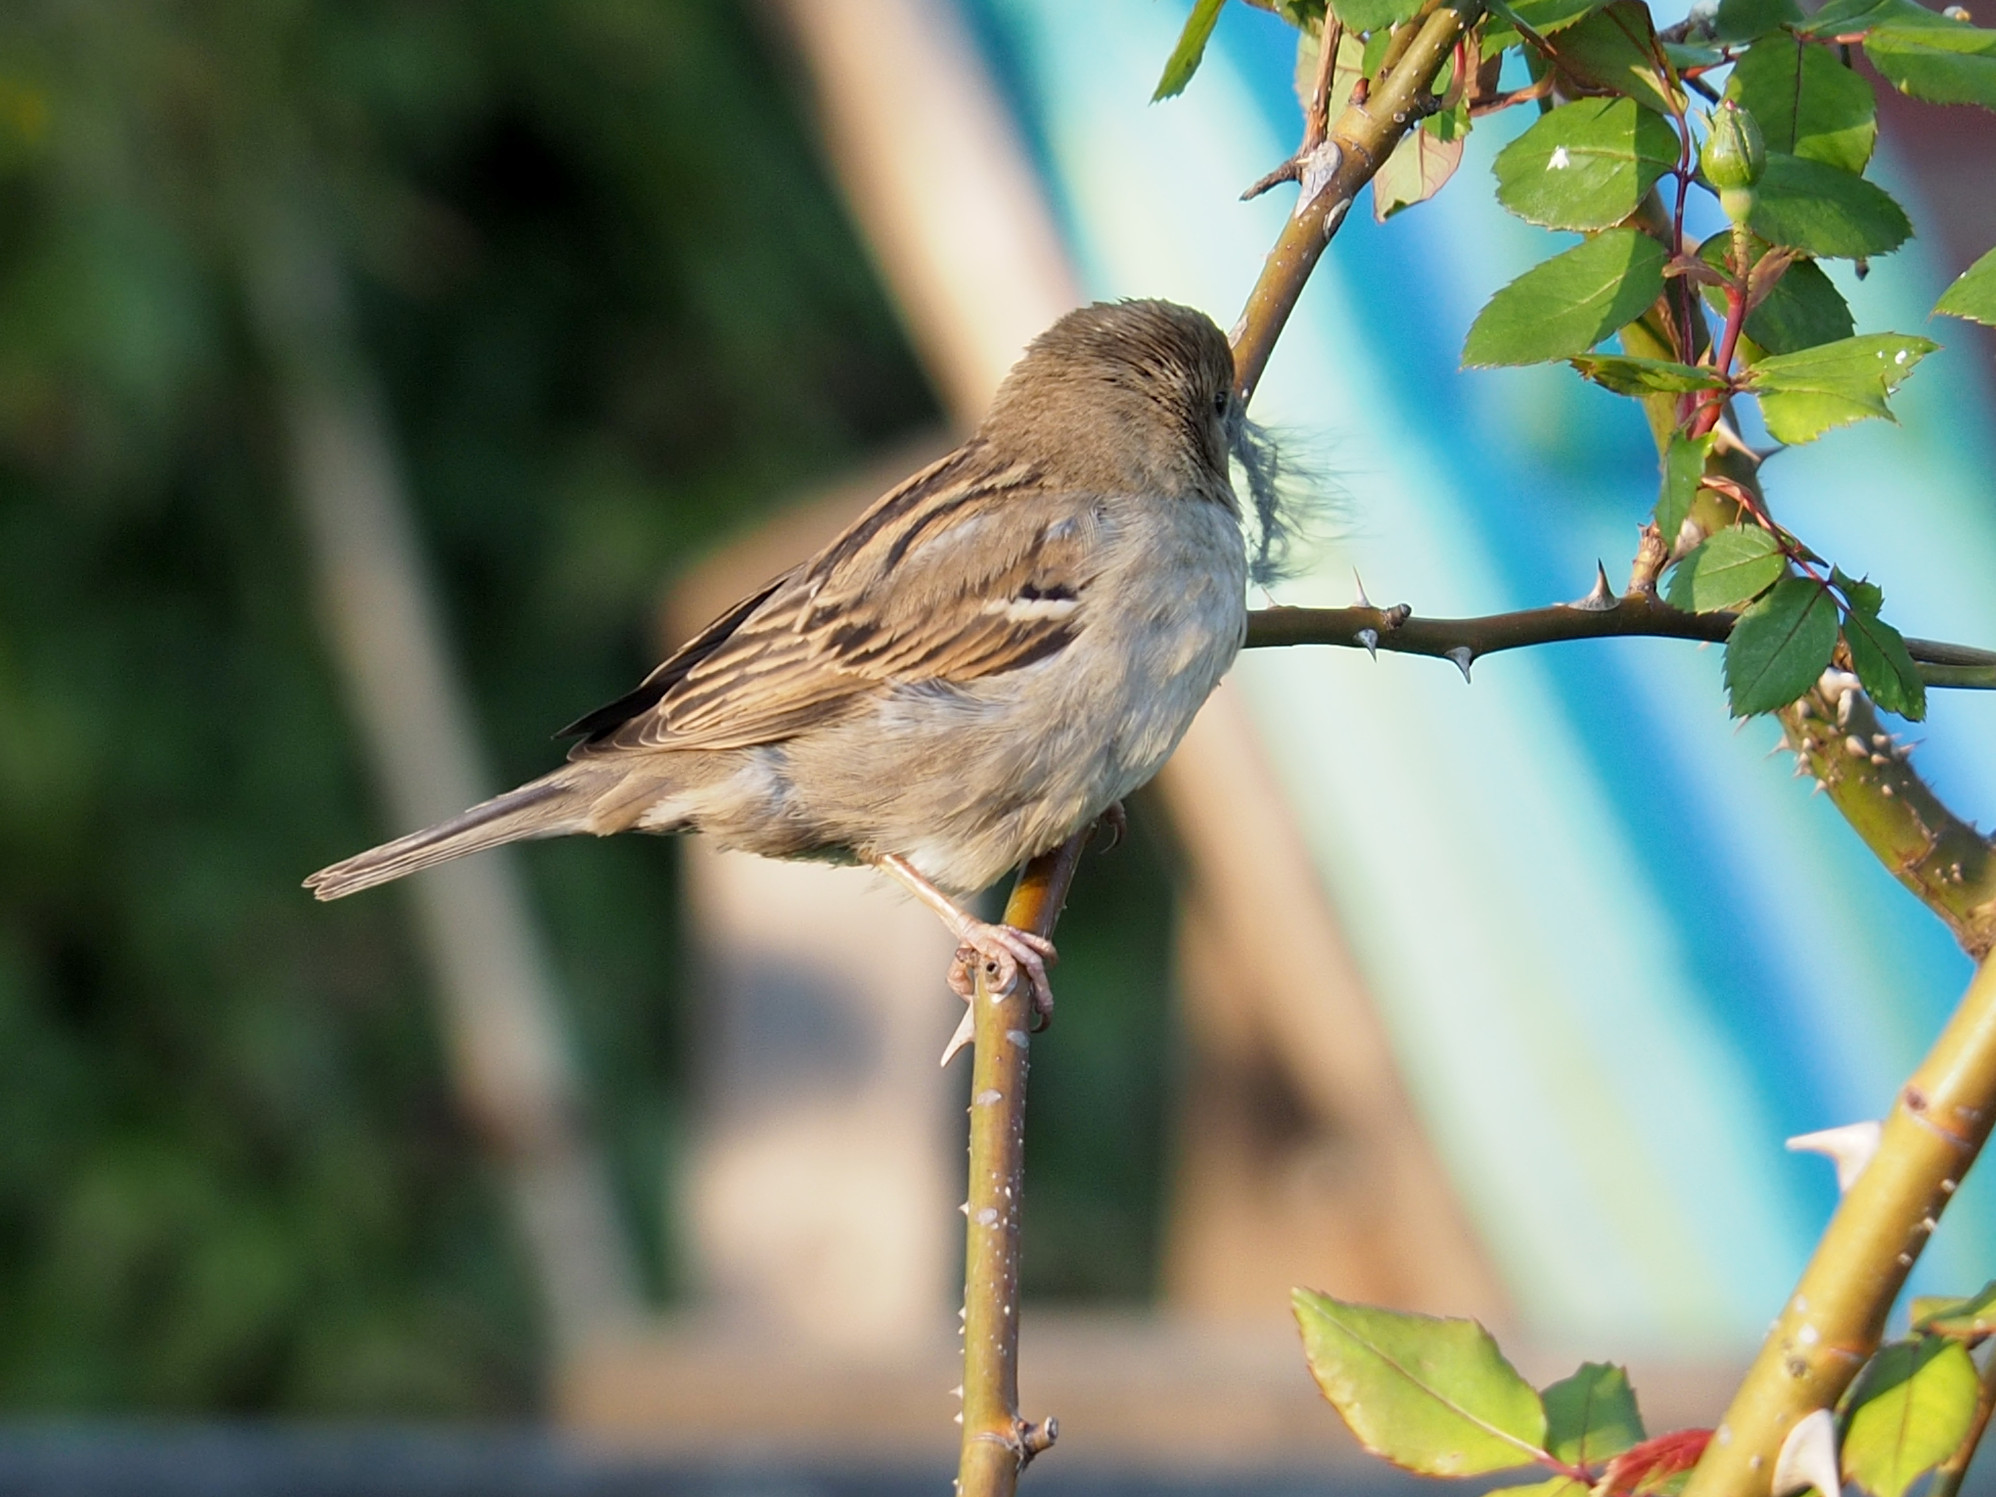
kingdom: Animalia
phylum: Chordata
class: Aves
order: Passeriformes
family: Passeridae
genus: Passer
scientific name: Passer domesticus
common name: House sparrow
